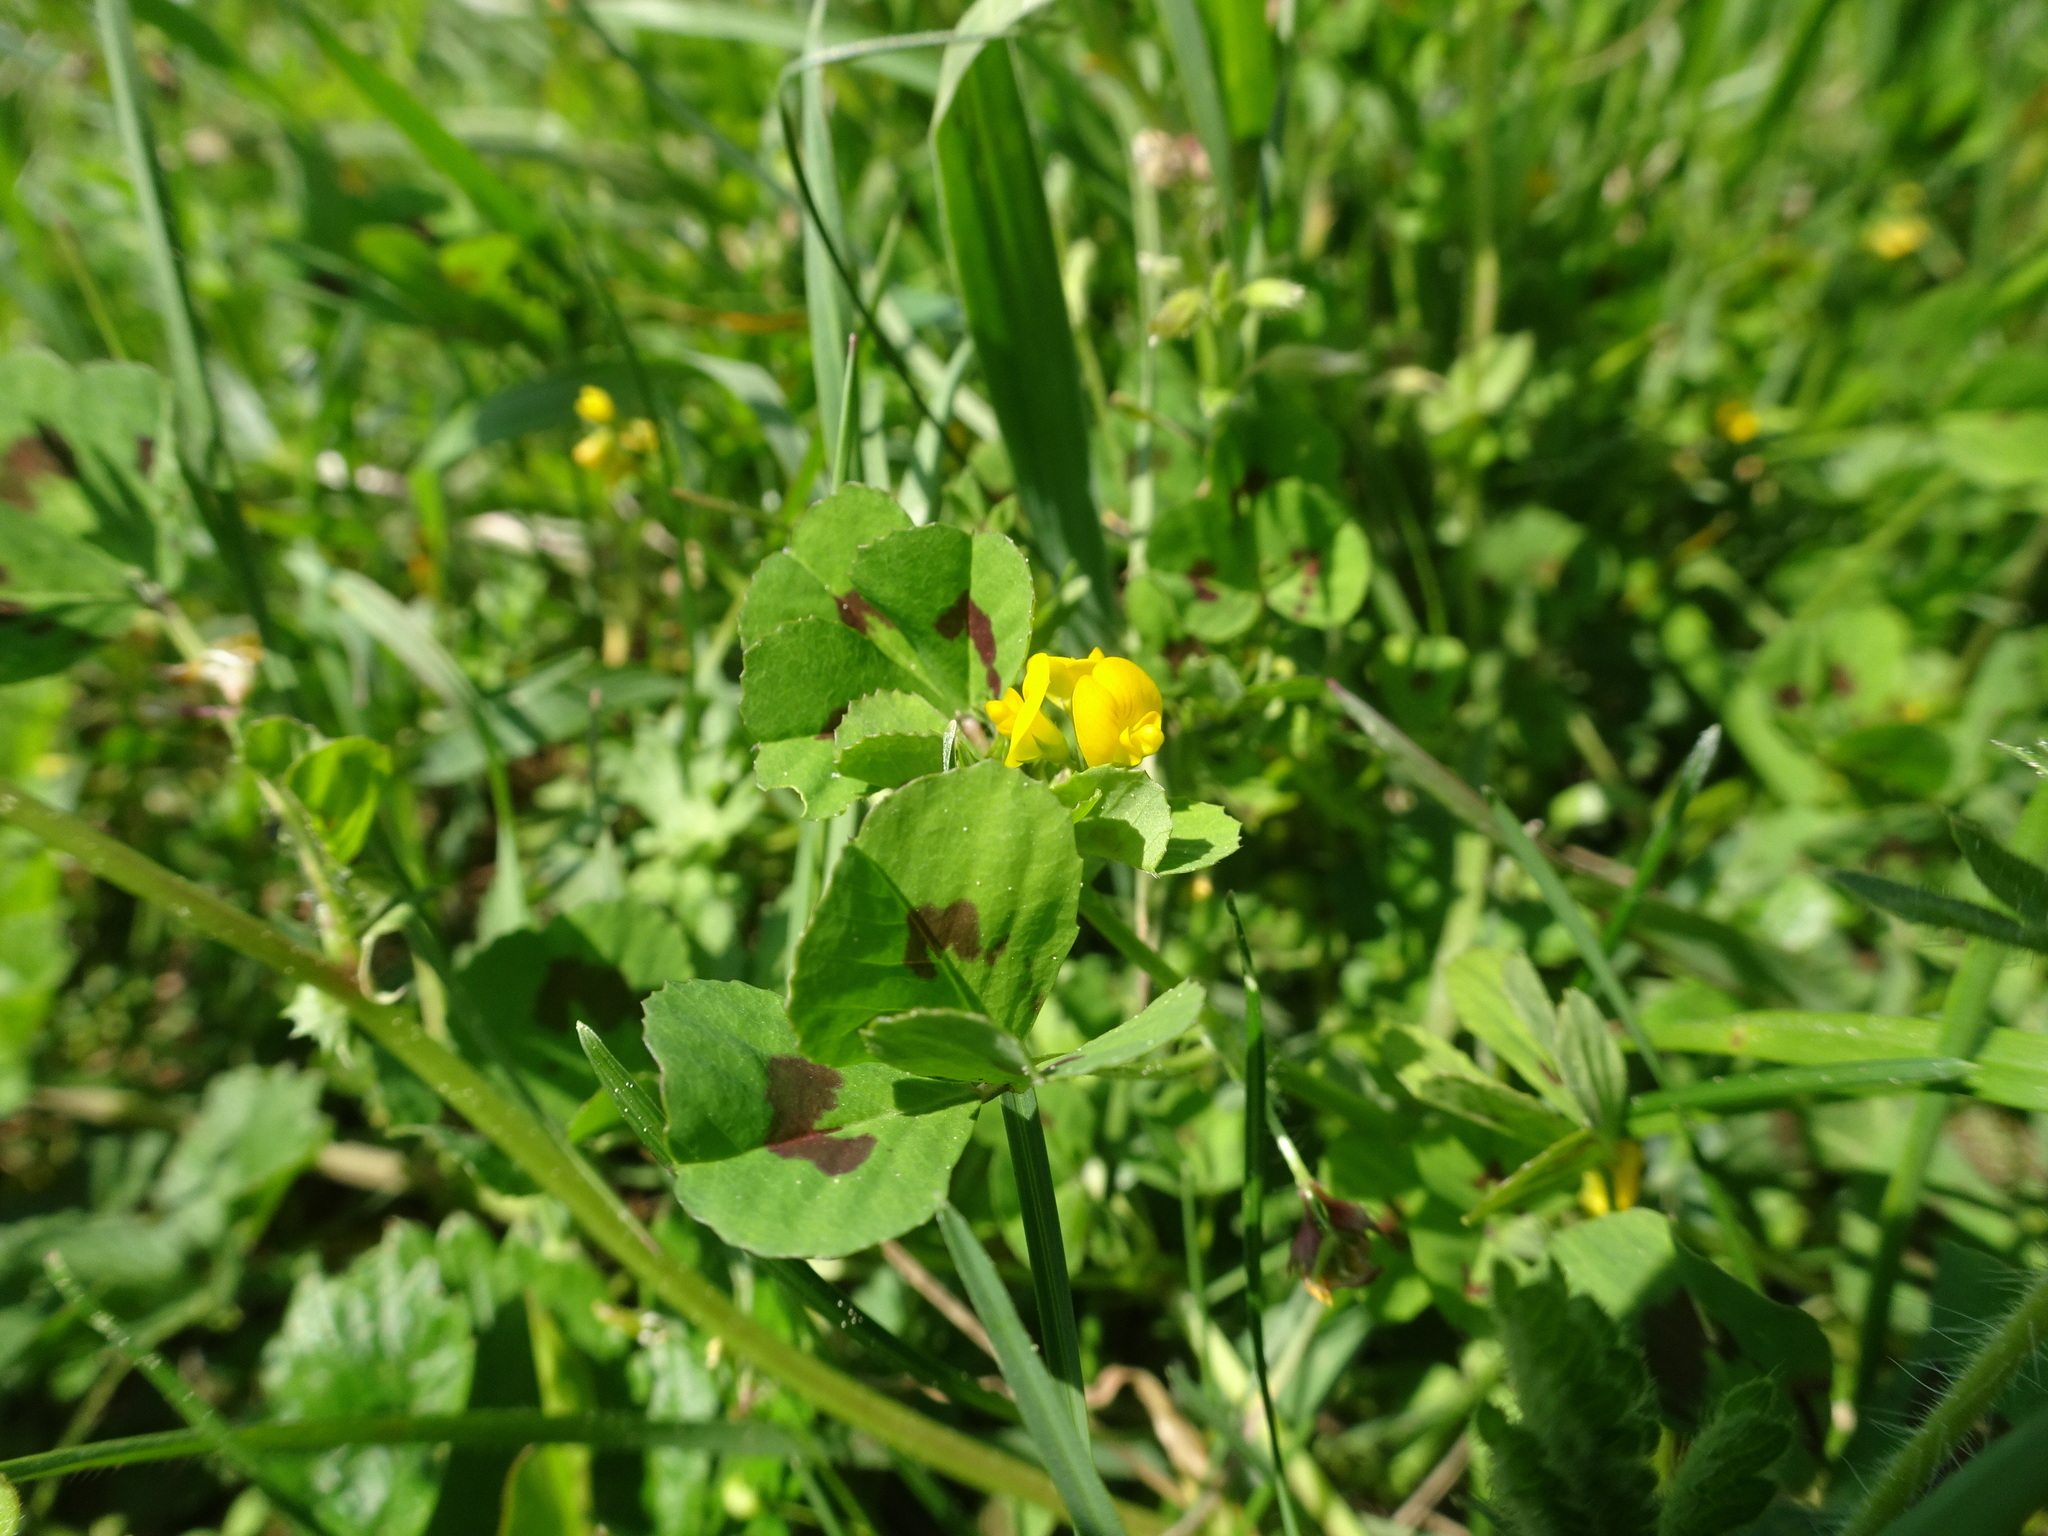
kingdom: Plantae
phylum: Tracheophyta
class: Magnoliopsida
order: Fabales
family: Fabaceae
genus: Medicago
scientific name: Medicago arabica
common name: Spotted medick
